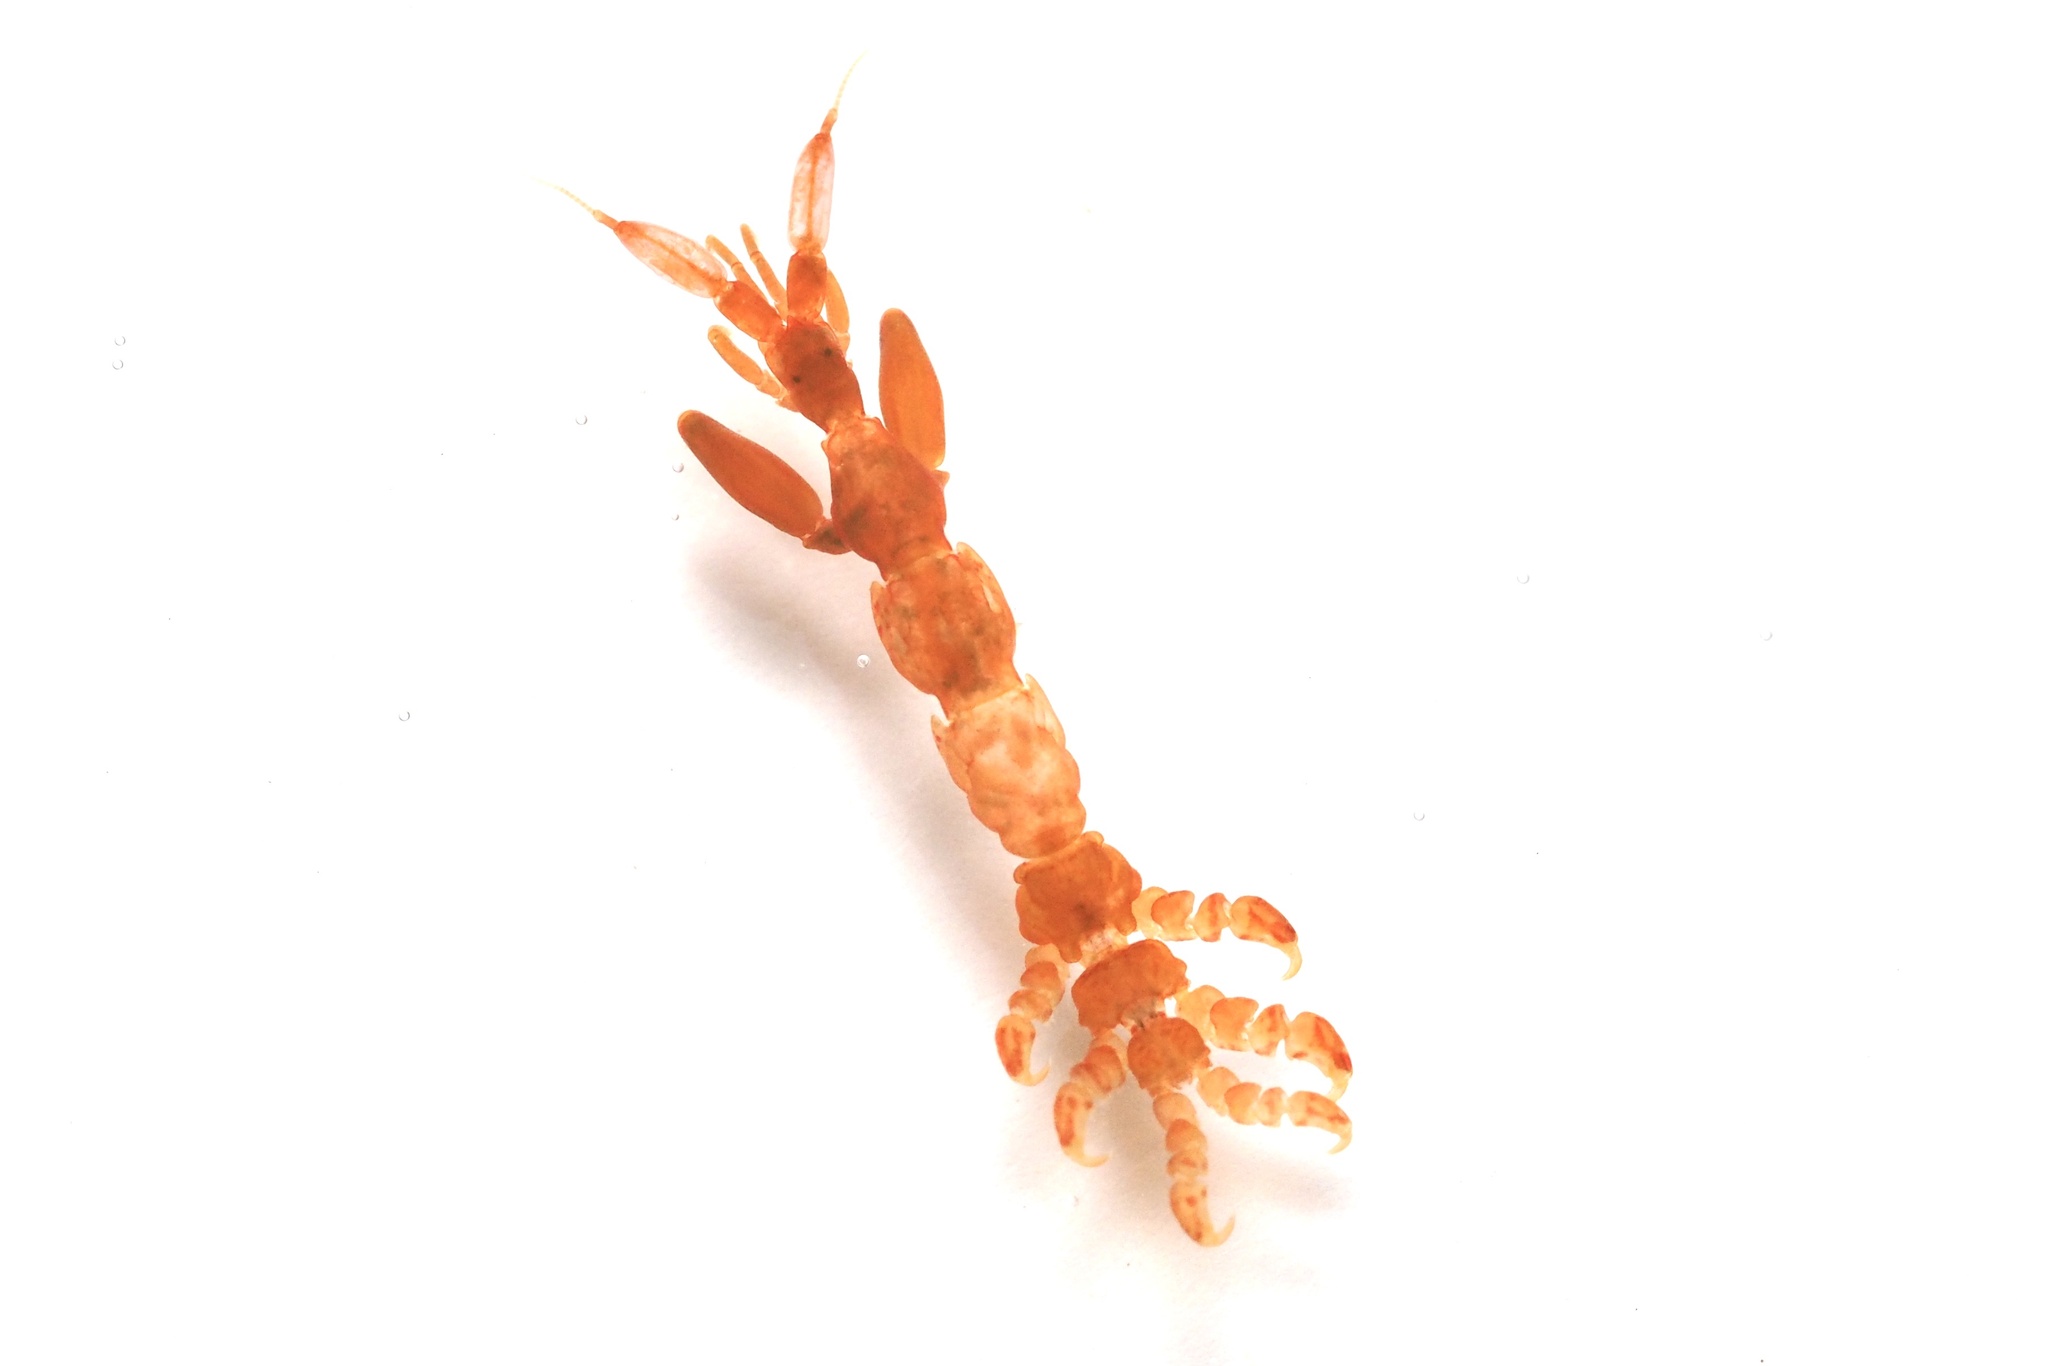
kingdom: Animalia
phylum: Arthropoda
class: Malacostraca
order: Amphipoda
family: Caprellidae
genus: Caprella
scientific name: Caprella penantis
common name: Skeleton shrimp
